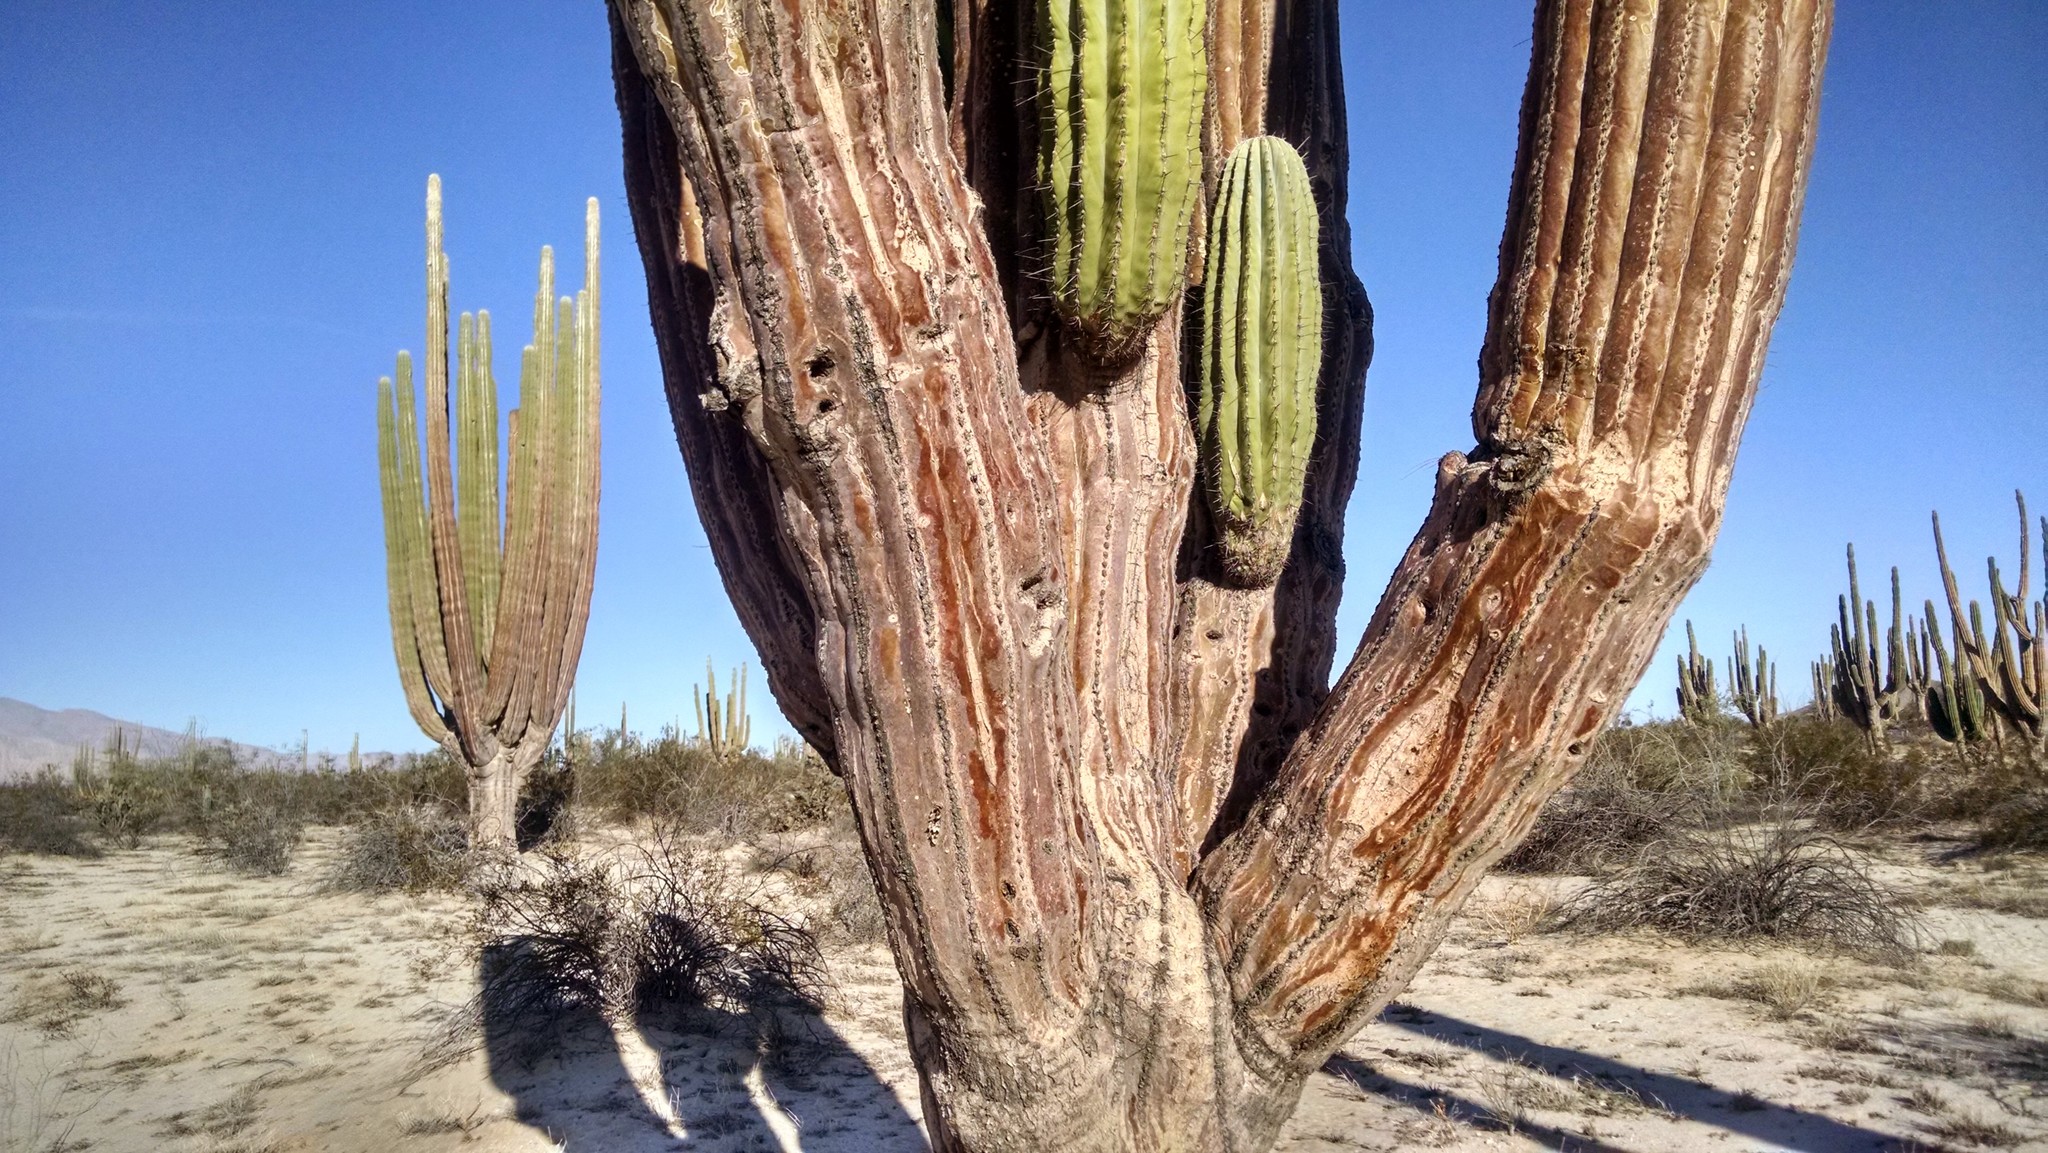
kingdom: Plantae
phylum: Tracheophyta
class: Magnoliopsida
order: Caryophyllales
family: Cactaceae
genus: Pachycereus
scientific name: Pachycereus pringlei
